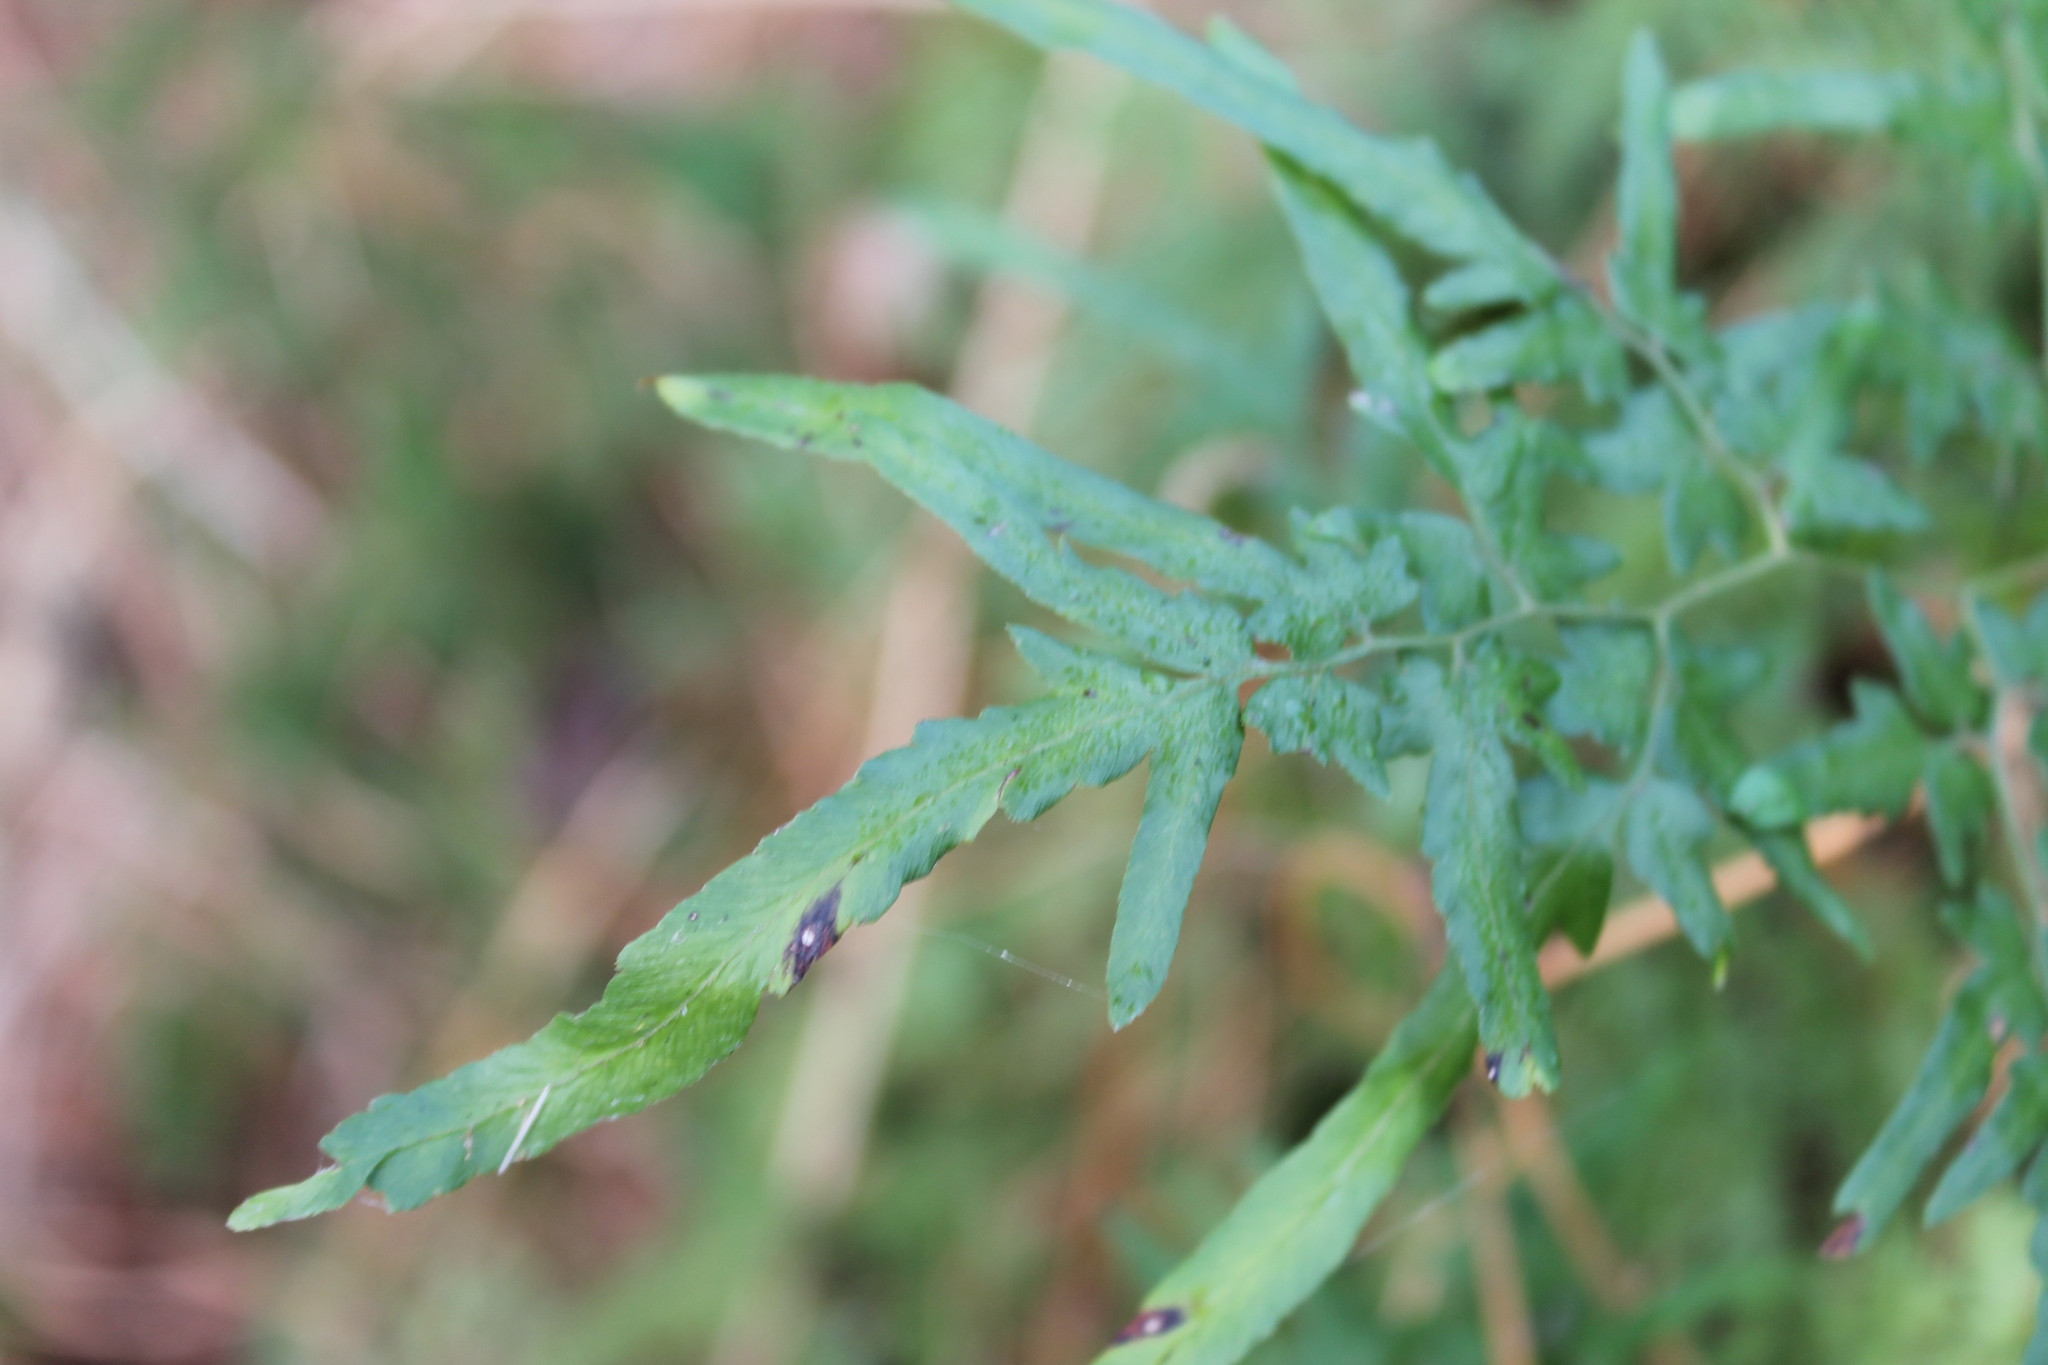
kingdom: Plantae
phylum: Tracheophyta
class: Polypodiopsida
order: Schizaeales
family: Lygodiaceae
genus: Lygodium
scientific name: Lygodium japonicum
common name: Japanese climbing fern
